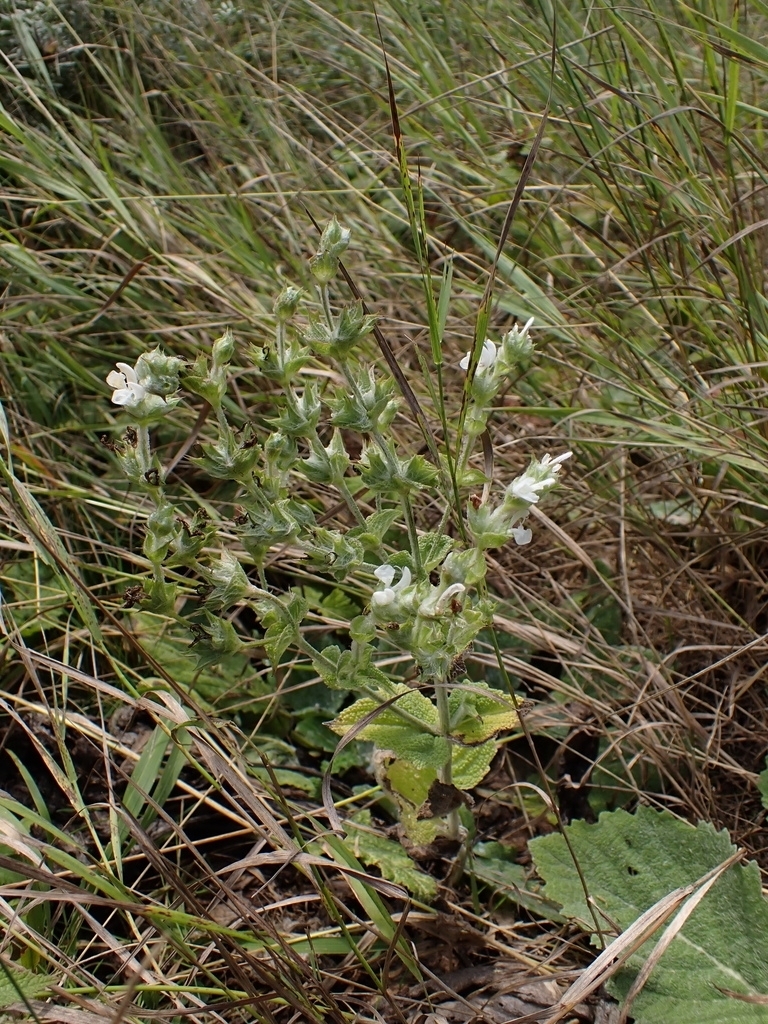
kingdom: Plantae
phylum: Tracheophyta
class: Magnoliopsida
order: Lamiales
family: Lamiaceae
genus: Salvia
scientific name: Salvia aethiopis
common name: Mediterranean sage
